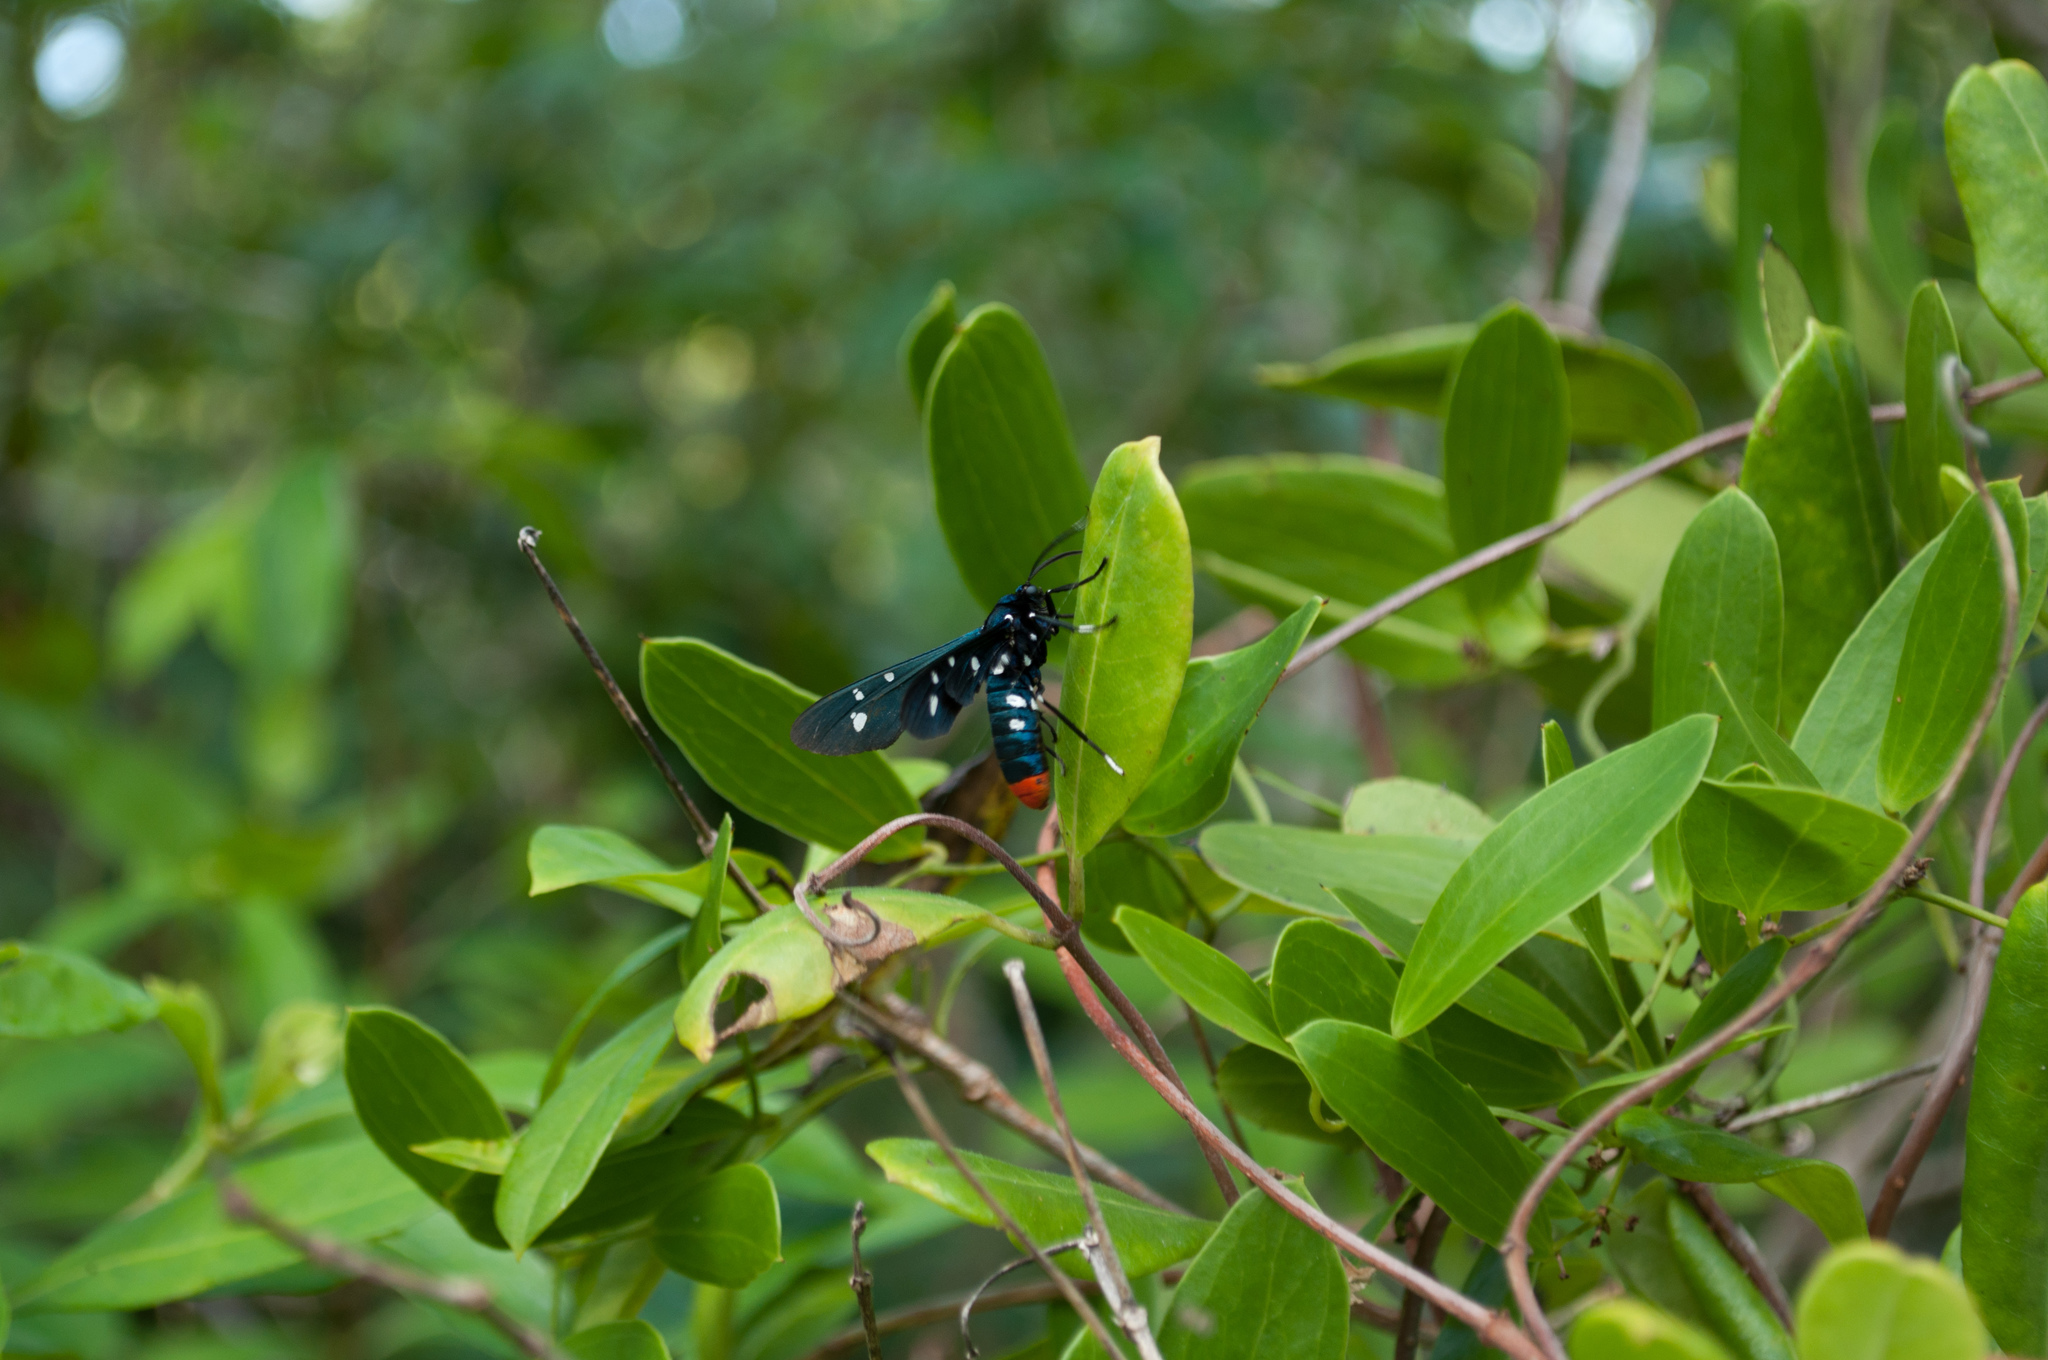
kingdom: Animalia
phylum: Arthropoda
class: Insecta
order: Lepidoptera
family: Erebidae
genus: Syntomeida
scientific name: Syntomeida epilais
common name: Polka-dot wasp moth
